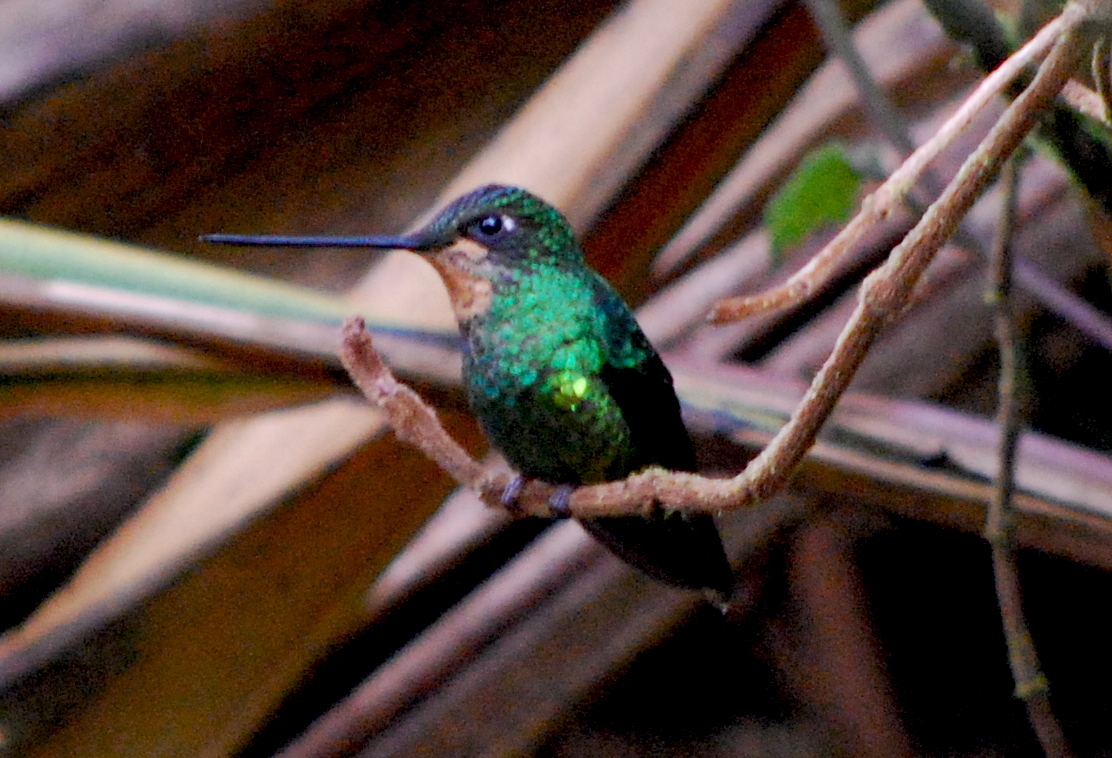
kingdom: Animalia
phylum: Chordata
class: Aves
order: Apodiformes
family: Trochilidae
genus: Coeligena
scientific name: Coeligena orina
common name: Dusky starfrontlet
